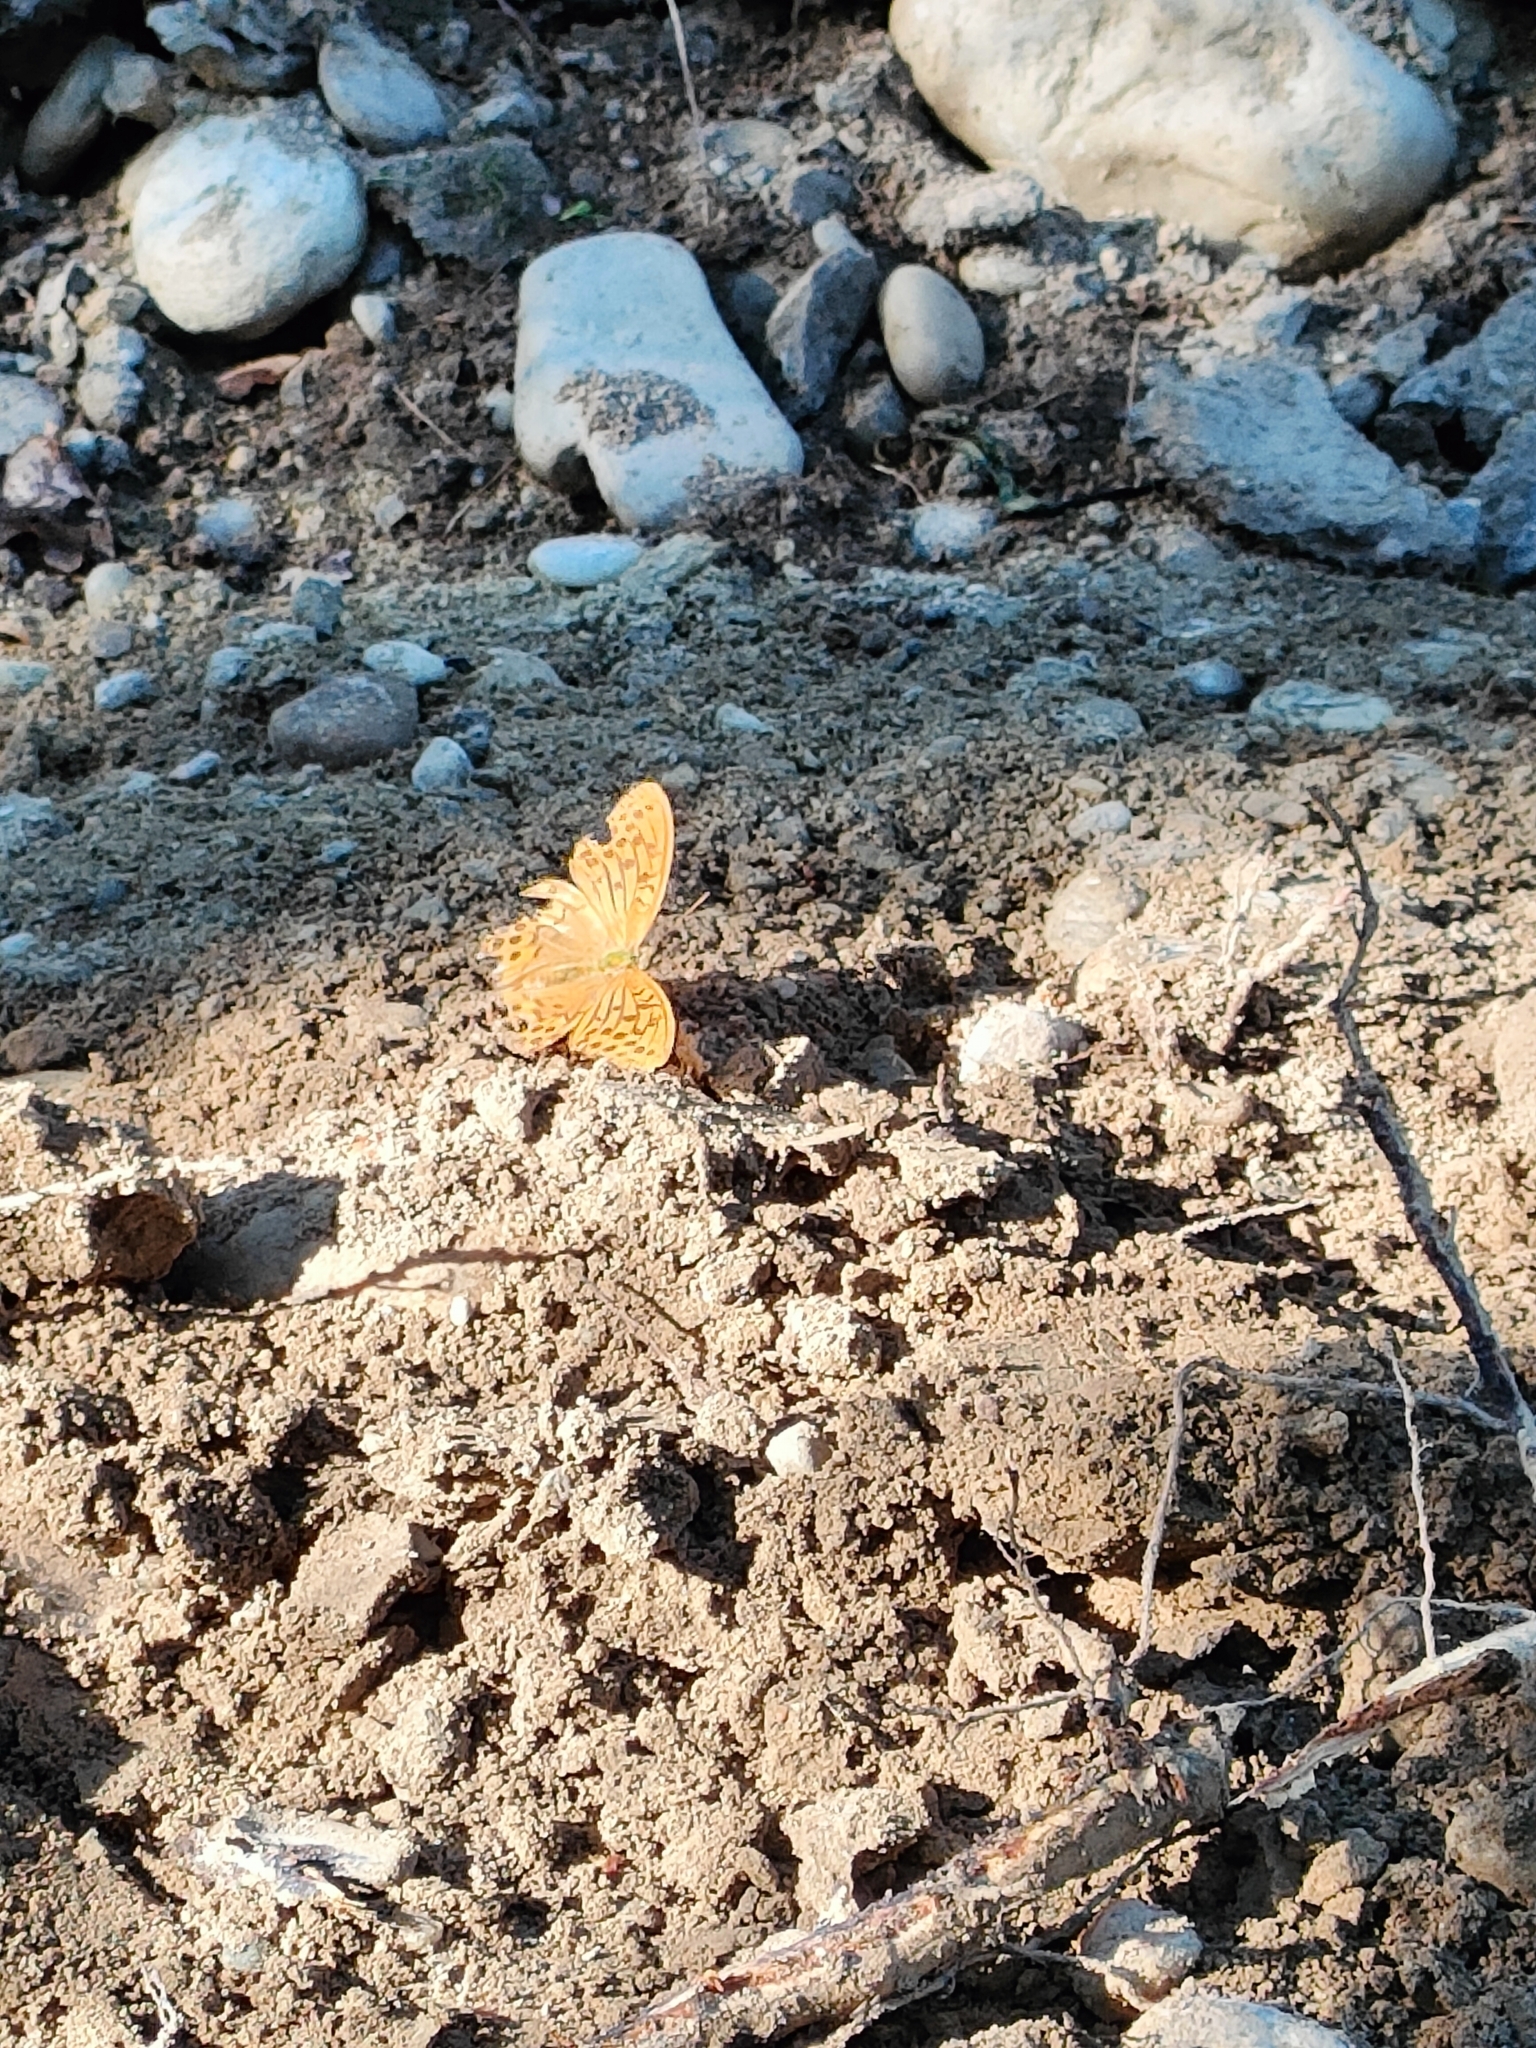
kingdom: Animalia
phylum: Arthropoda
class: Insecta
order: Lepidoptera
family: Nymphalidae
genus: Argynnis
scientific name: Argynnis paphia
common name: Silver-washed fritillary
